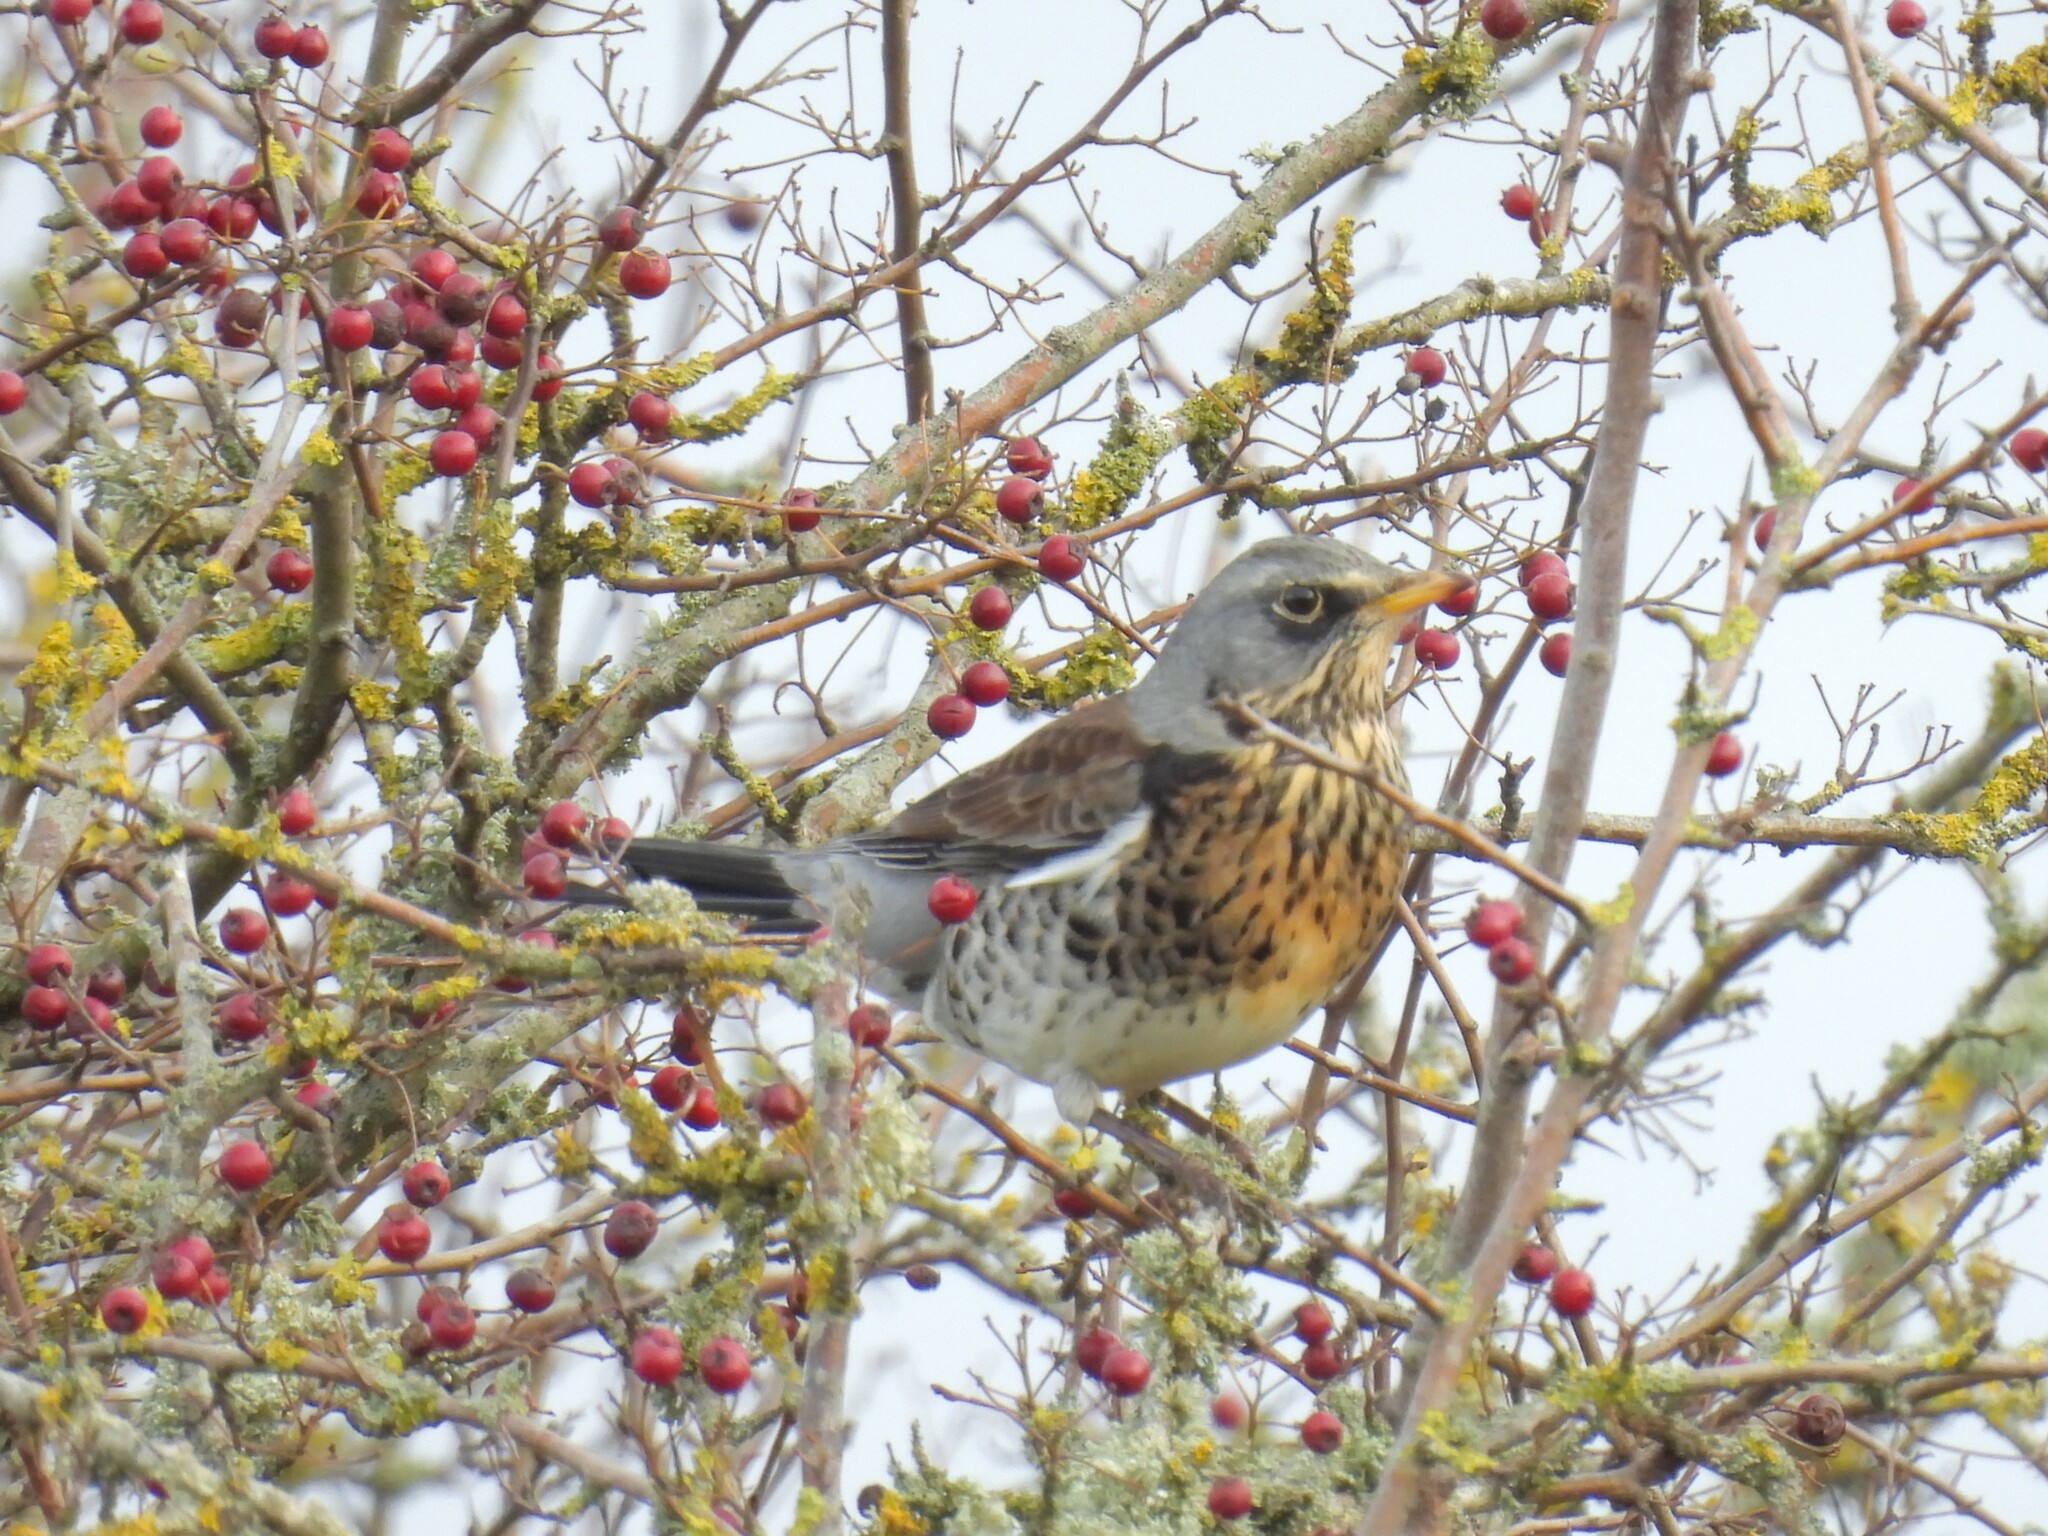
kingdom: Animalia
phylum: Chordata
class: Aves
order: Passeriformes
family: Turdidae
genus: Turdus
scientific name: Turdus pilaris
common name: Fieldfare
